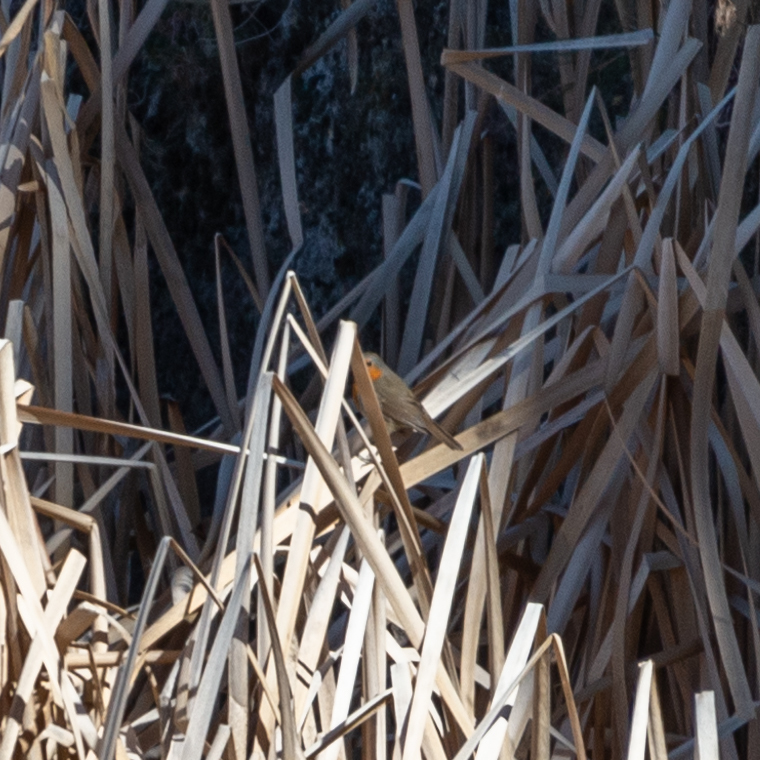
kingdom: Animalia
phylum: Chordata
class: Aves
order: Passeriformes
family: Muscicapidae
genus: Erithacus
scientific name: Erithacus rubecula
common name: European robin
